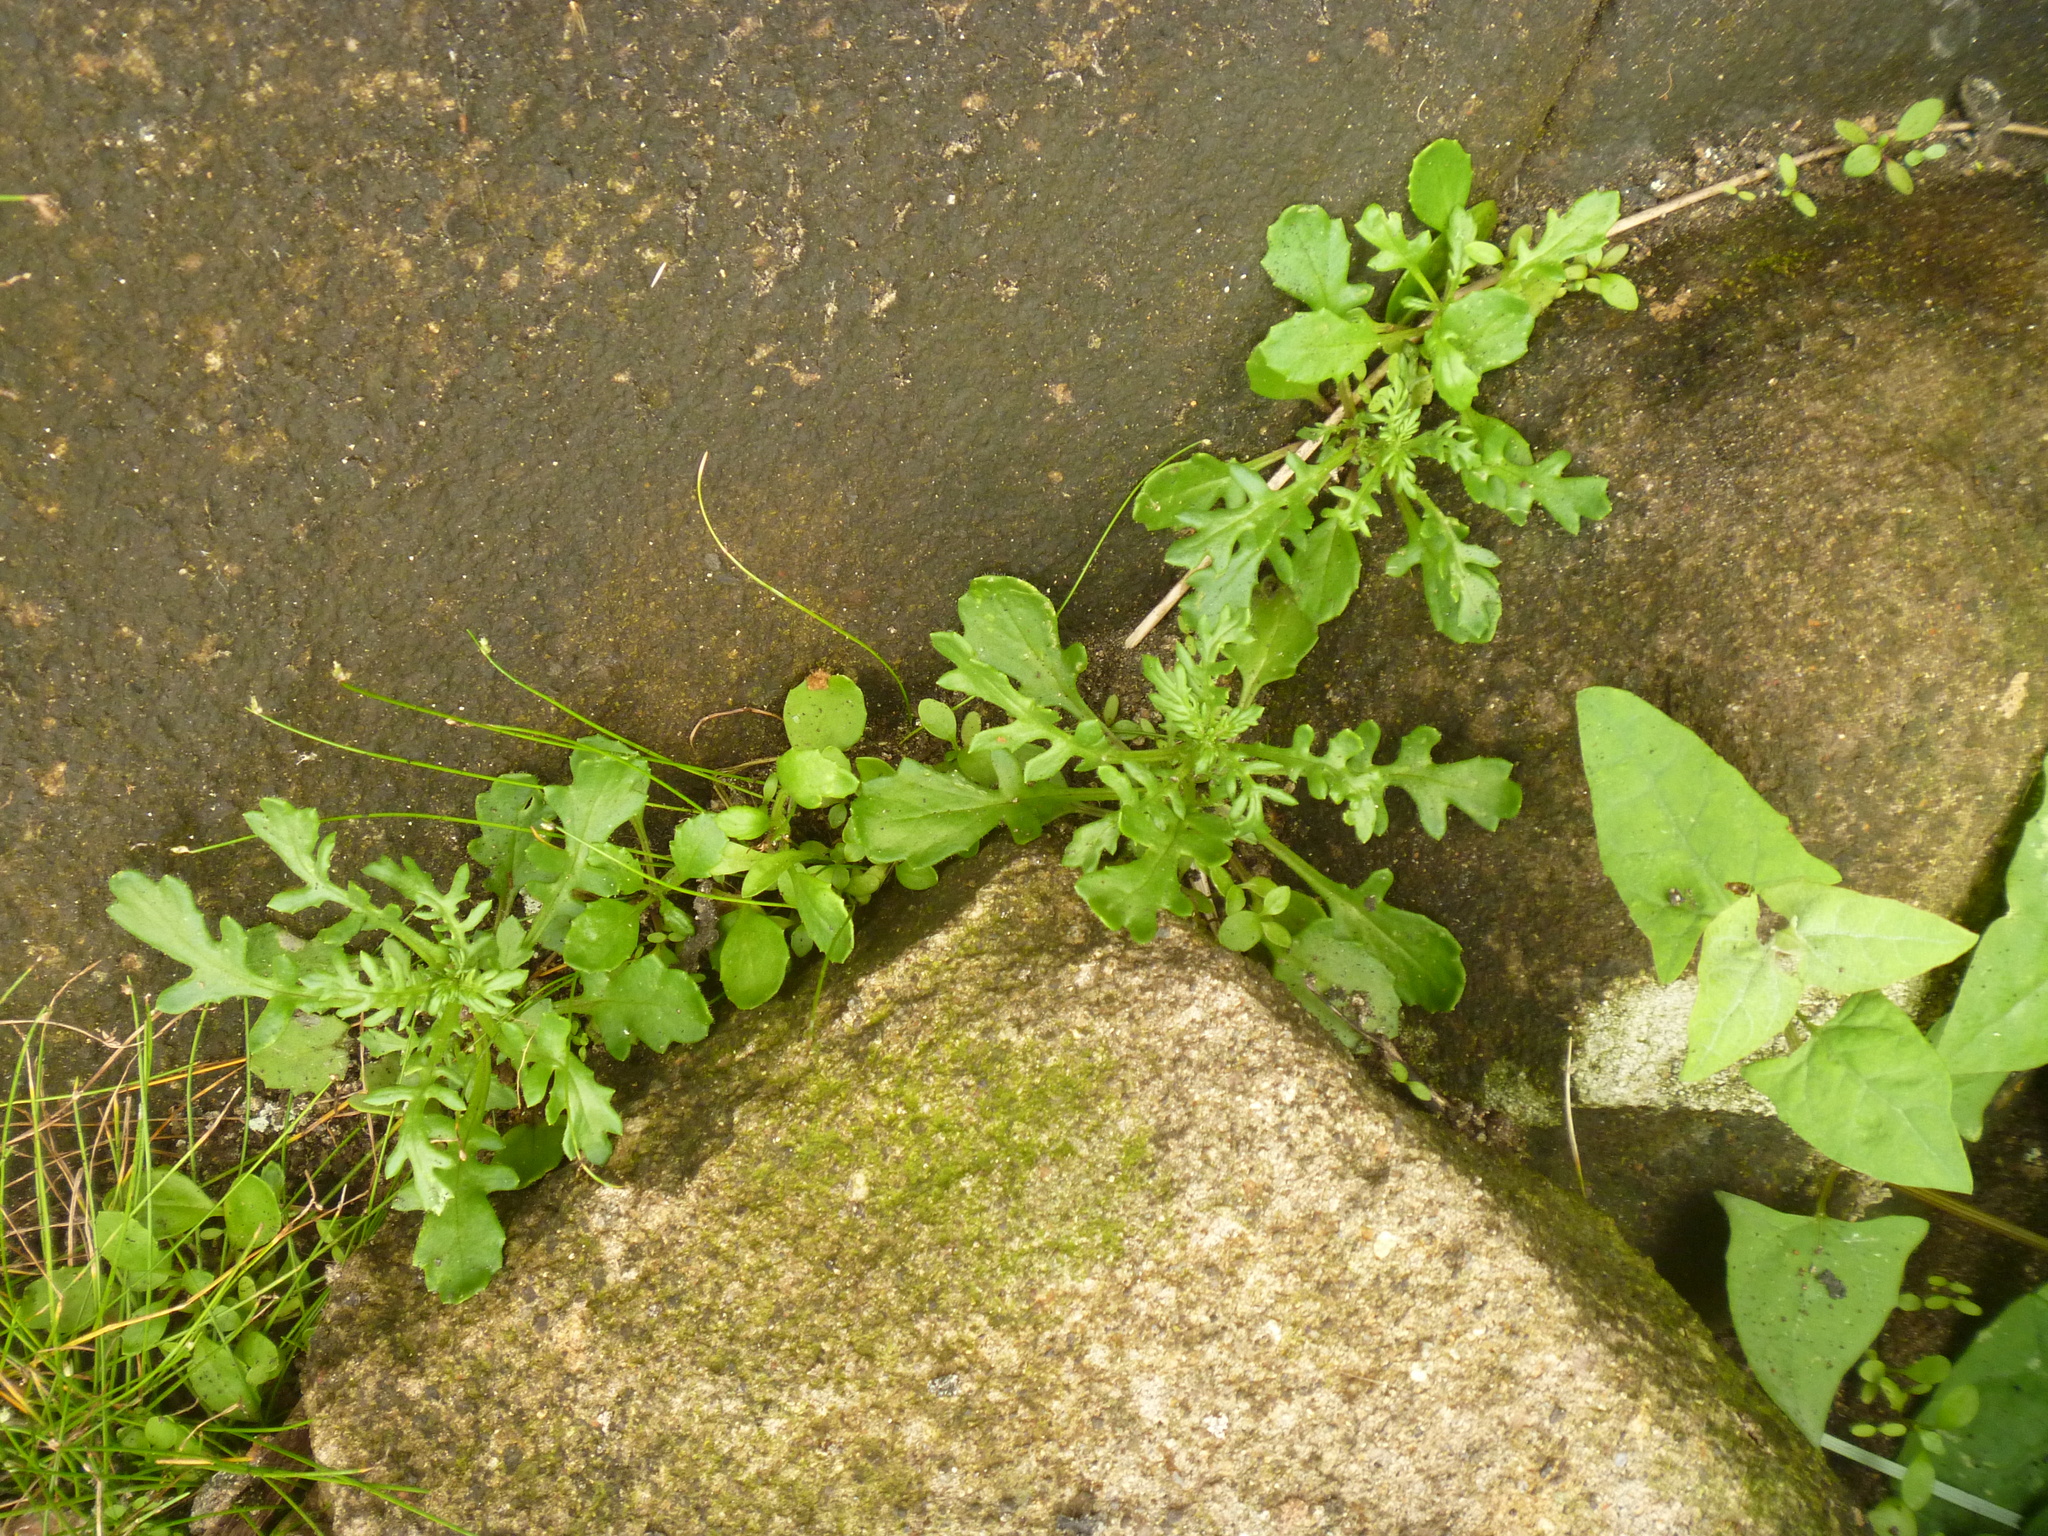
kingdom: Plantae
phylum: Tracheophyta
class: Magnoliopsida
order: Asterales
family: Asteraceae
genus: Senecio
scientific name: Senecio lautus
